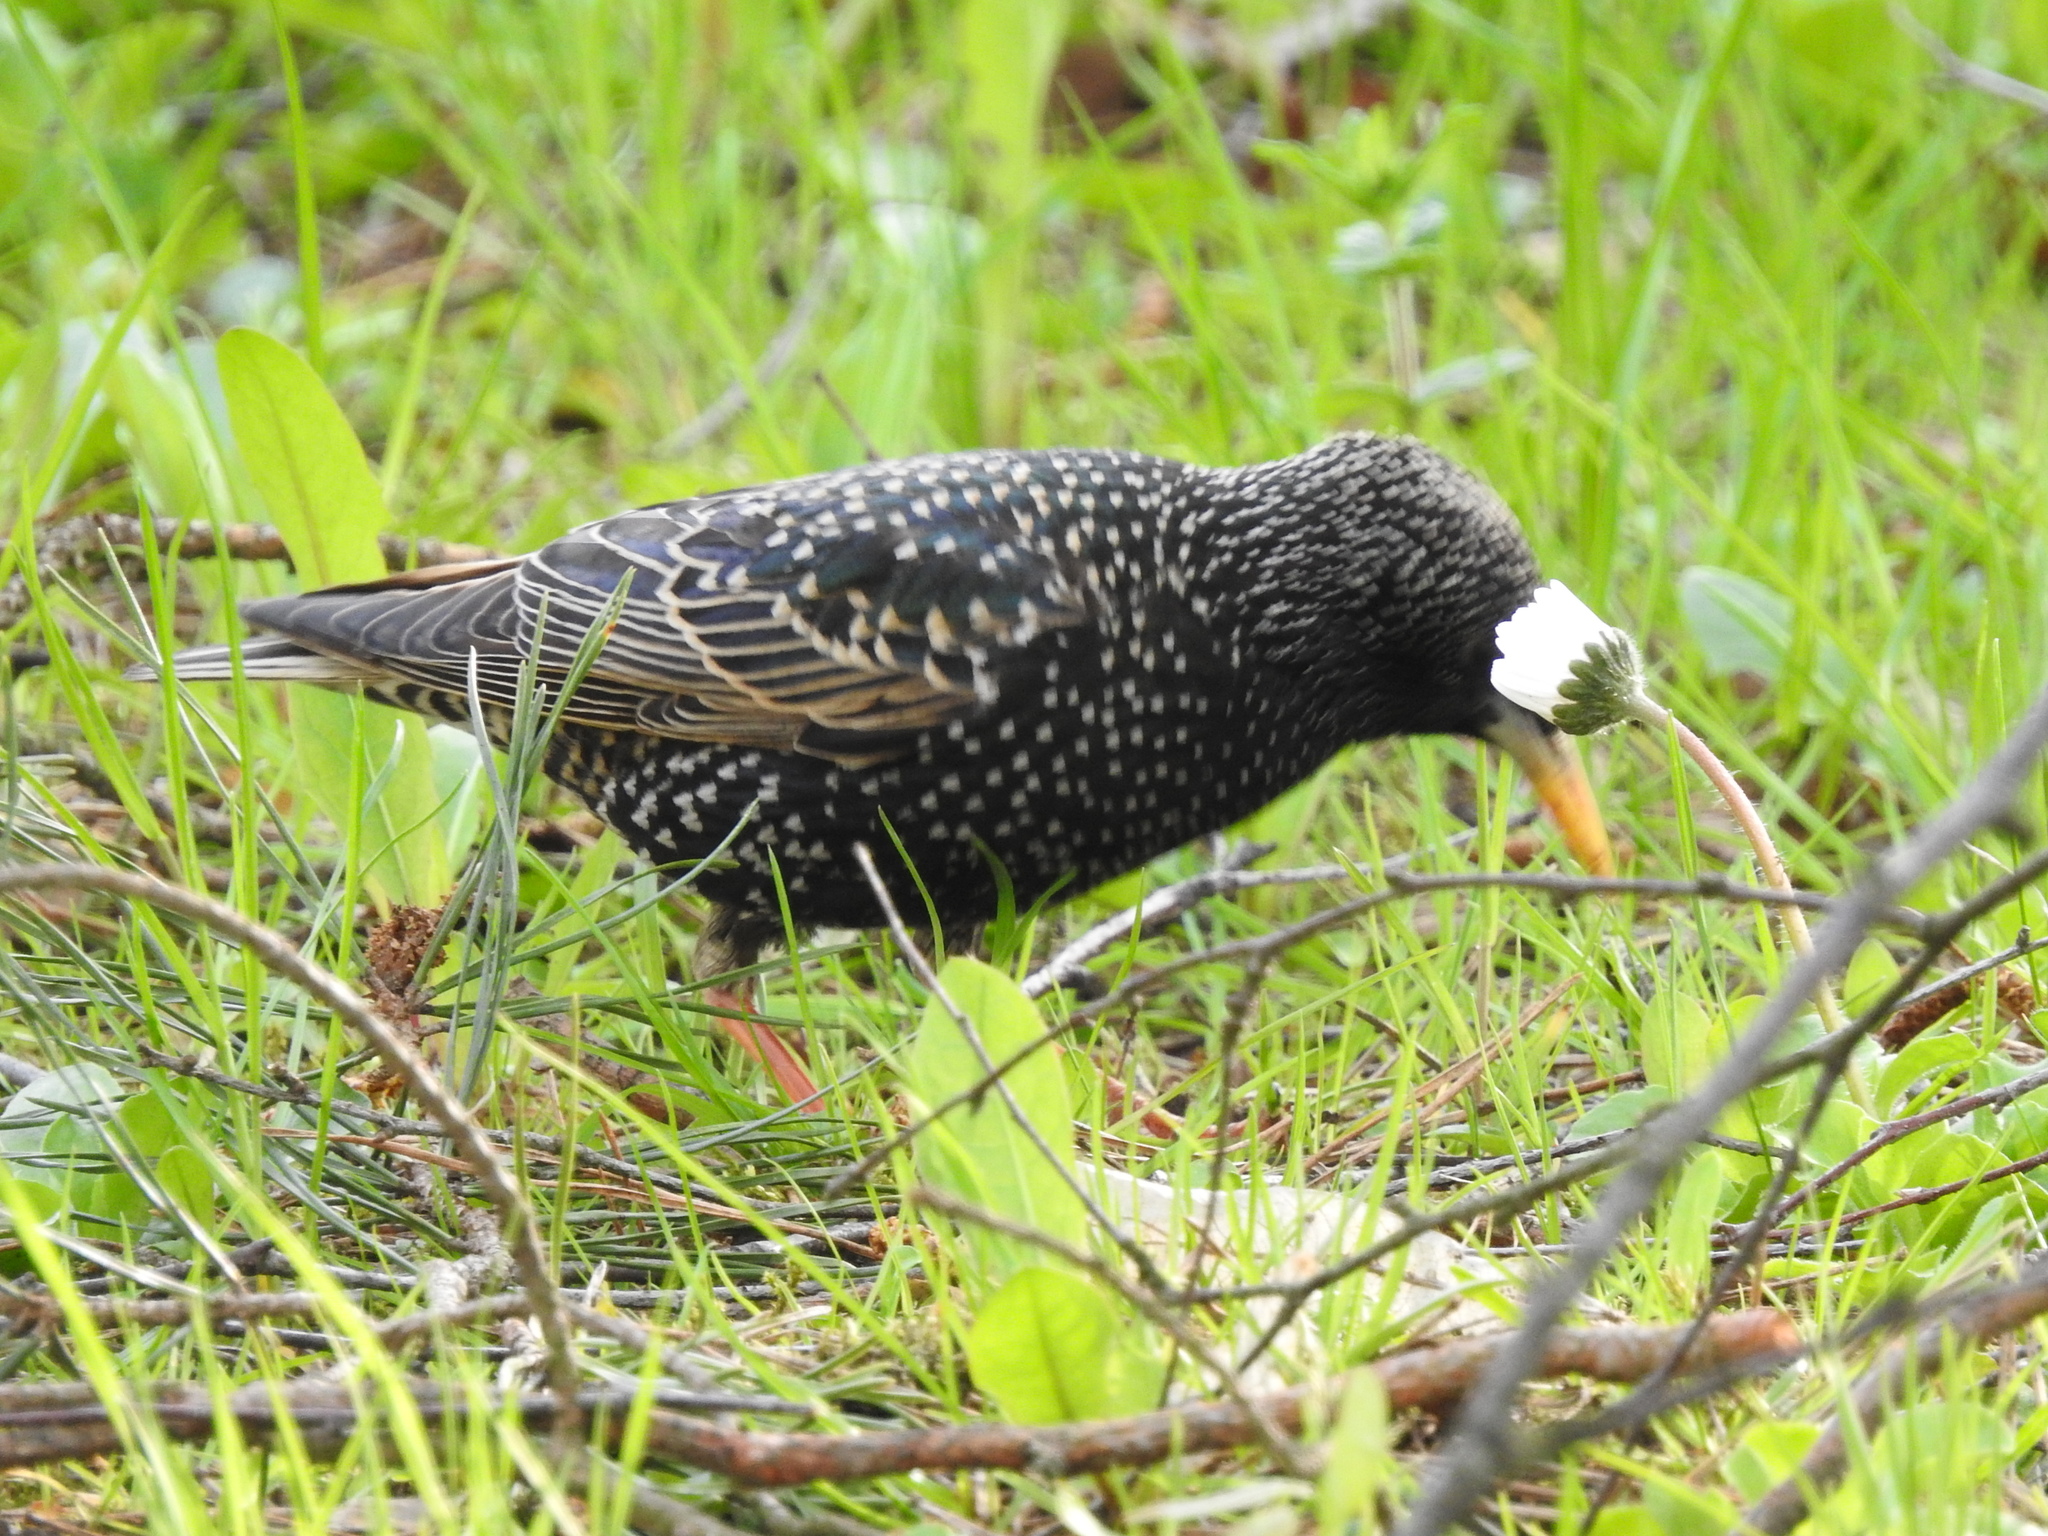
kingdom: Animalia
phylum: Chordata
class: Aves
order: Passeriformes
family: Sturnidae
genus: Sturnus
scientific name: Sturnus vulgaris
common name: Common starling
